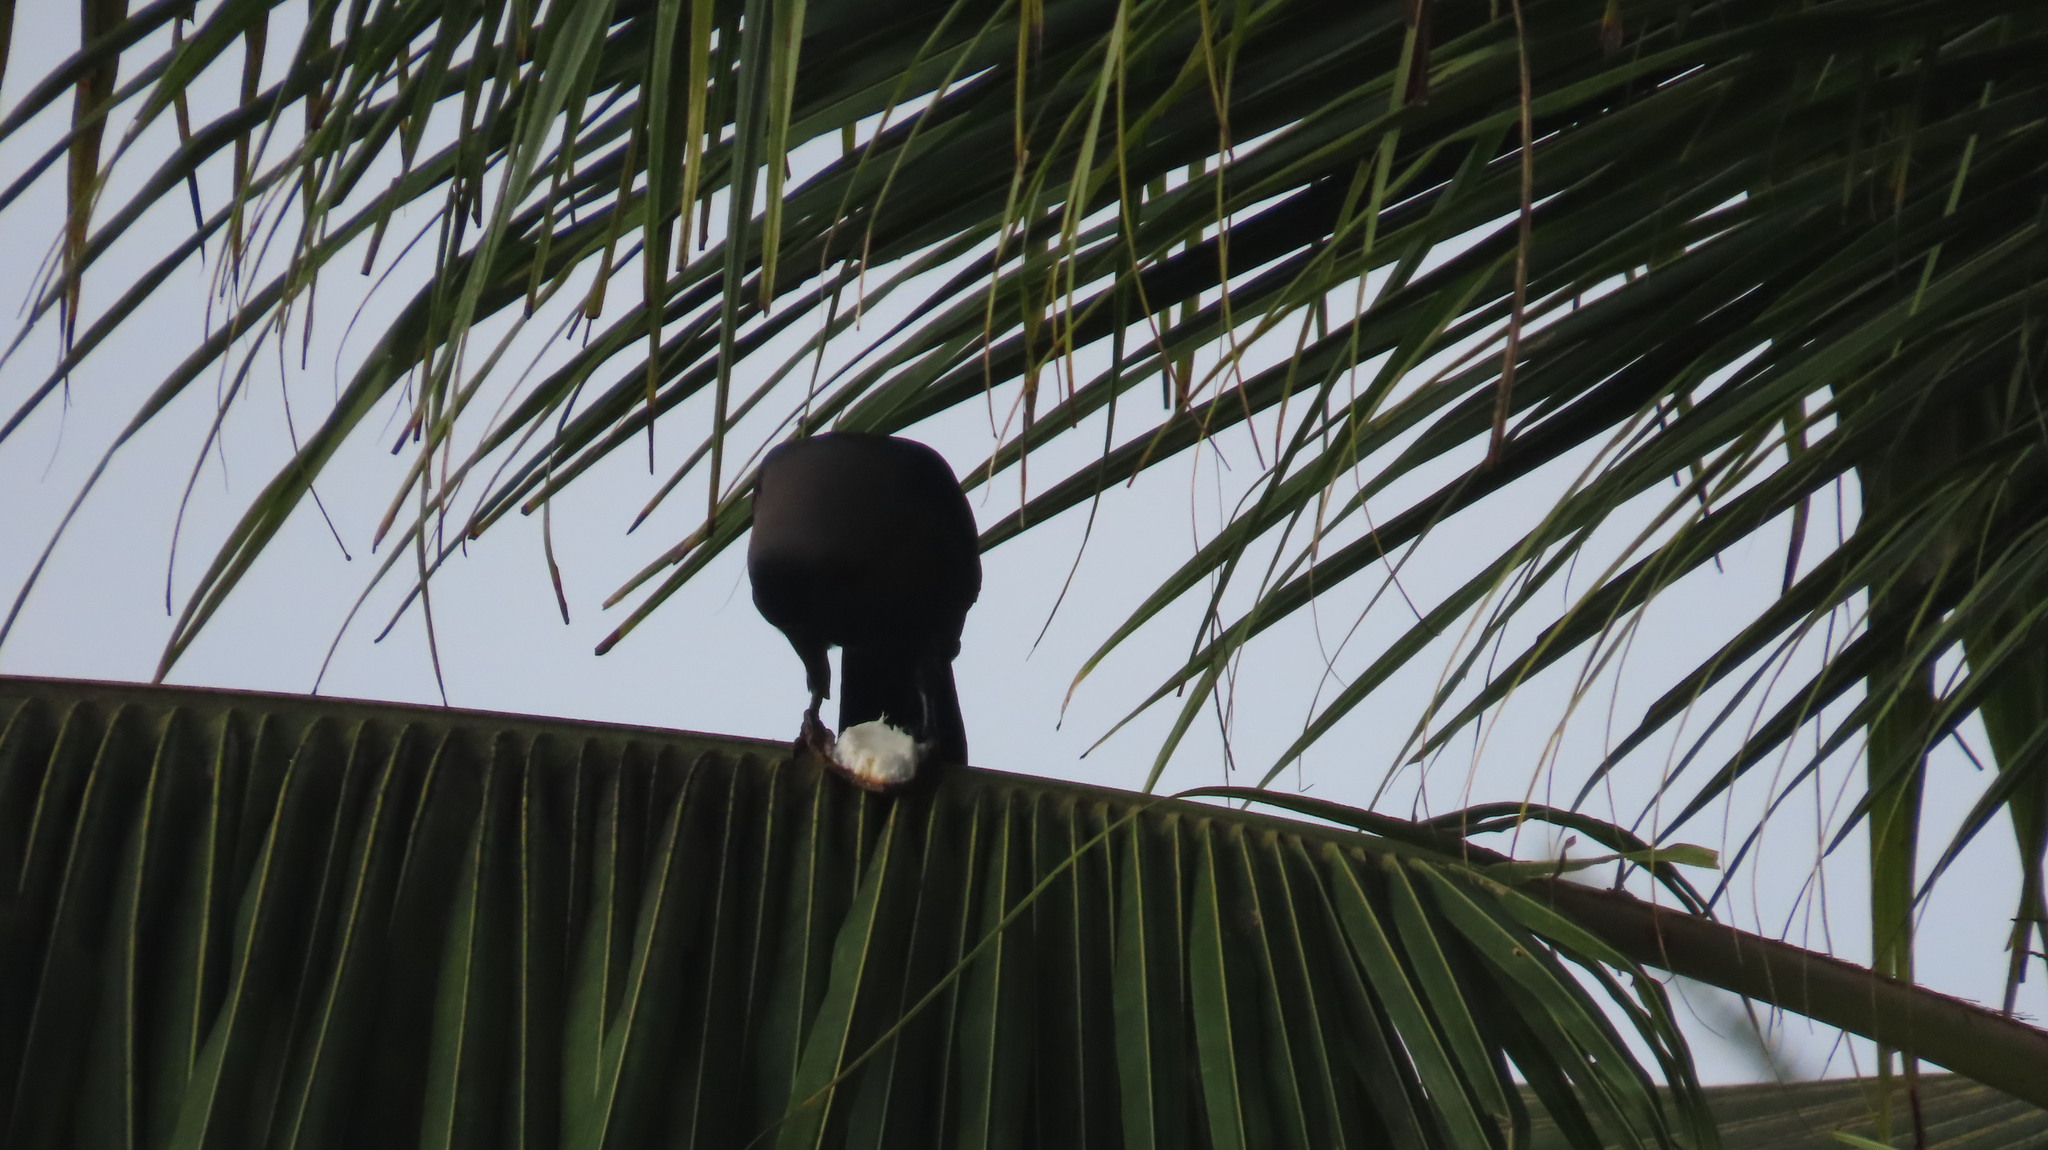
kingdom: Animalia
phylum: Chordata
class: Aves
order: Passeriformes
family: Corvidae
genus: Corvus
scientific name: Corvus splendens
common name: House crow
